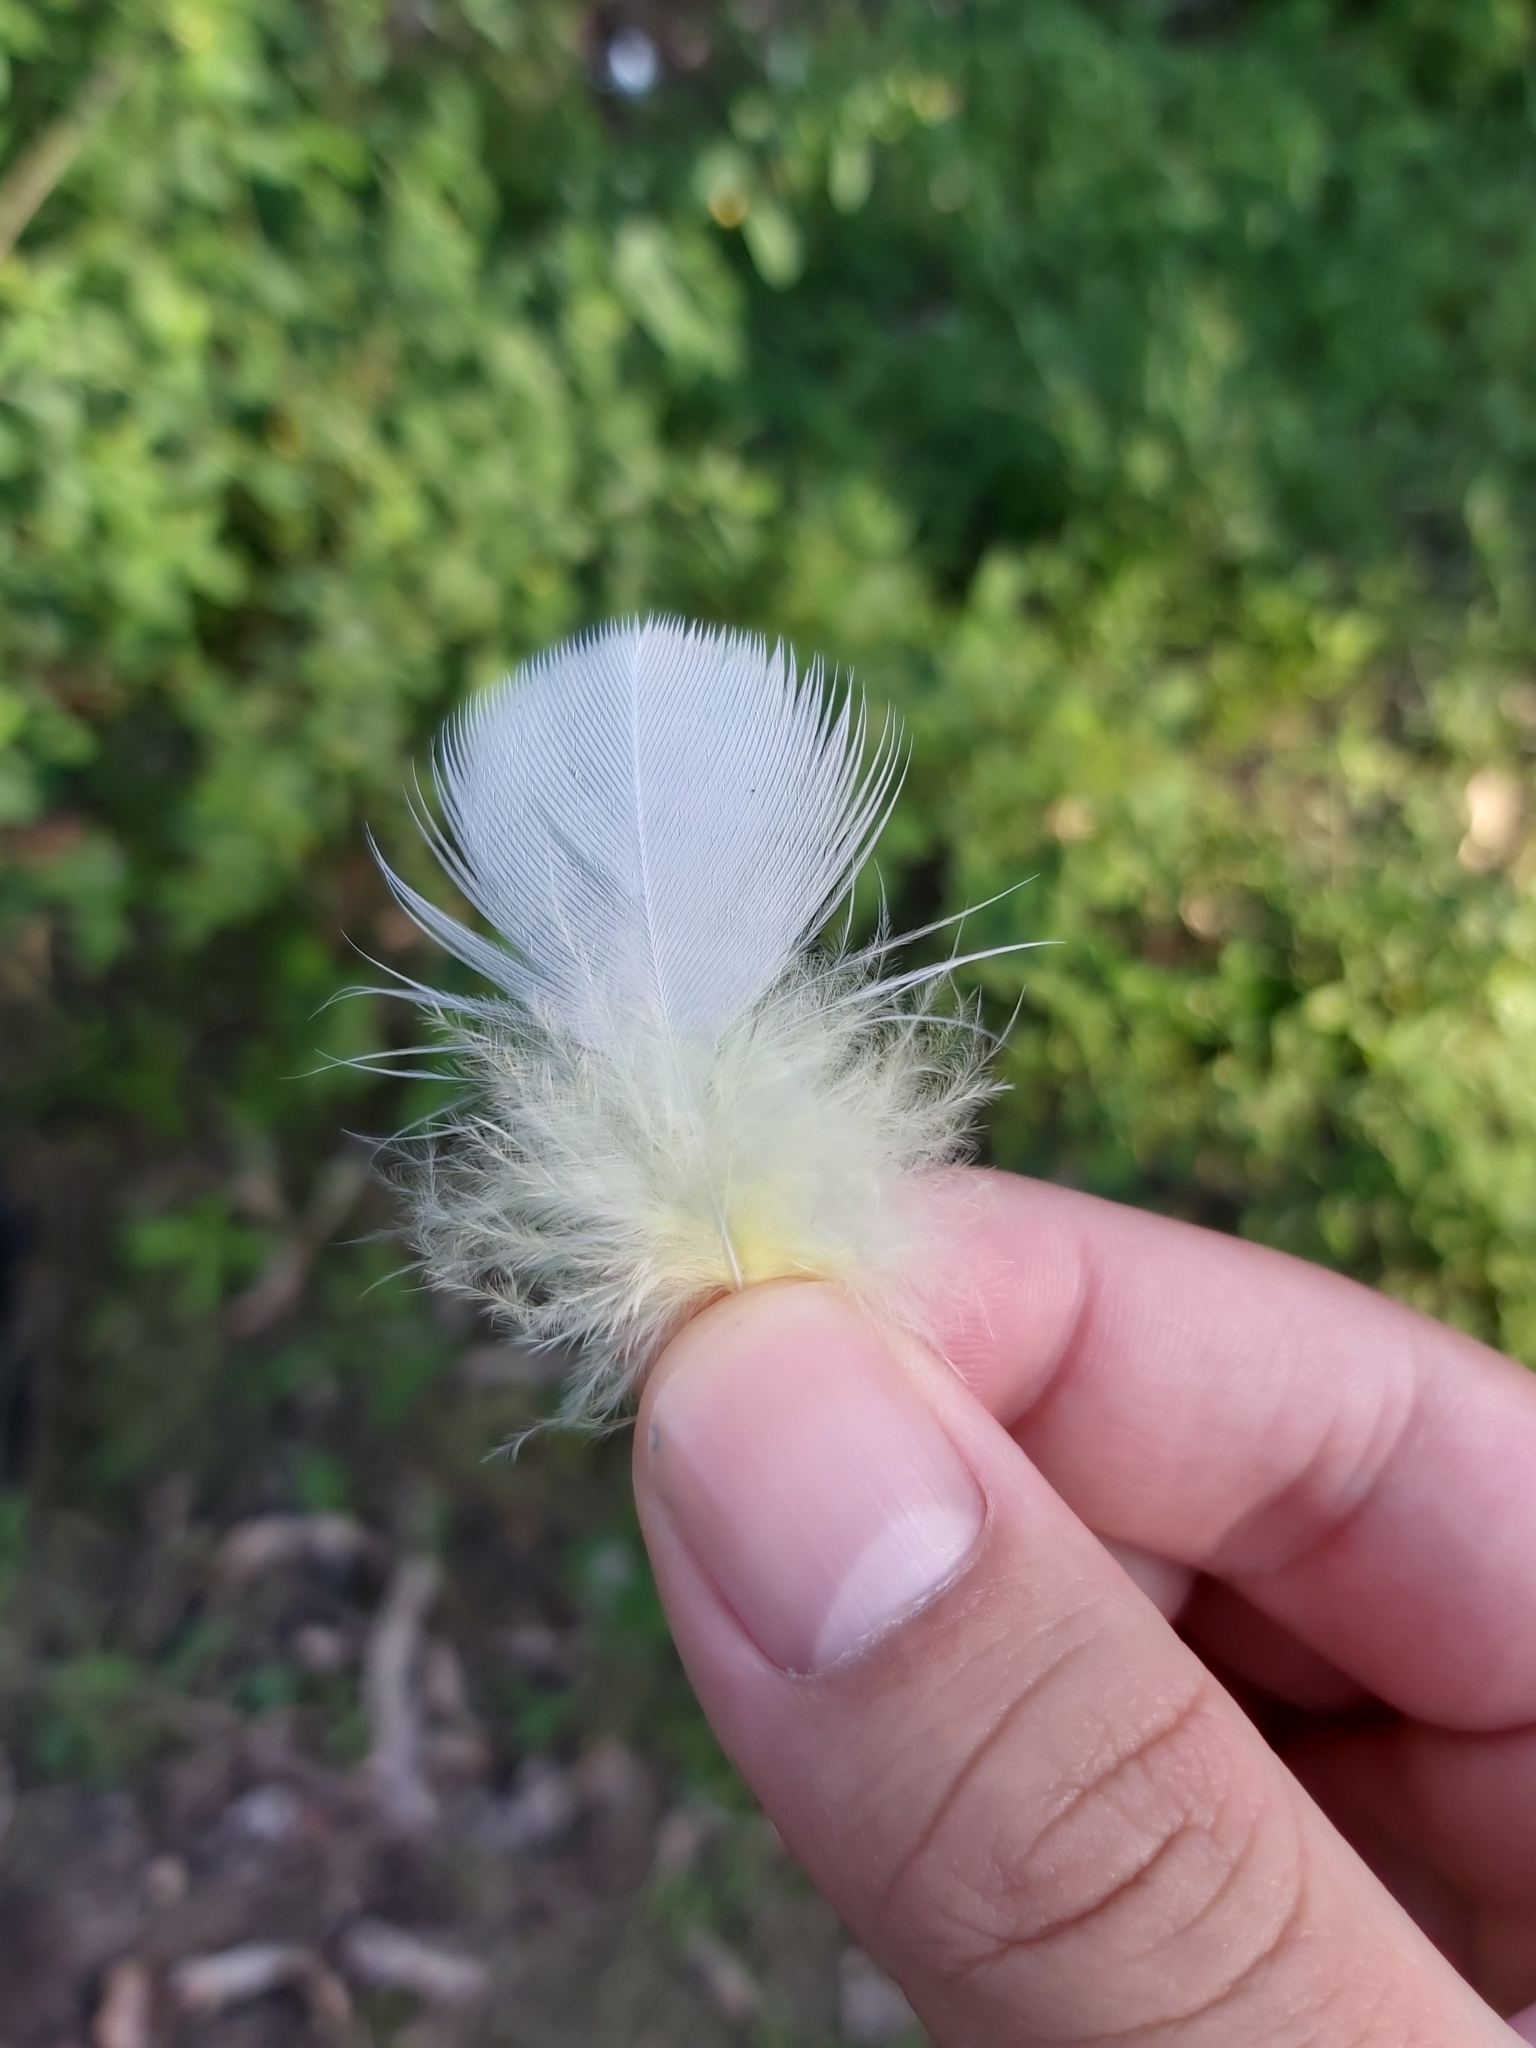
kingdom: Animalia
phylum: Chordata
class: Aves
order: Psittaciformes
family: Psittacidae
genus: Cacatua
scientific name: Cacatua galerita
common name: Sulphur-crested cockatoo
